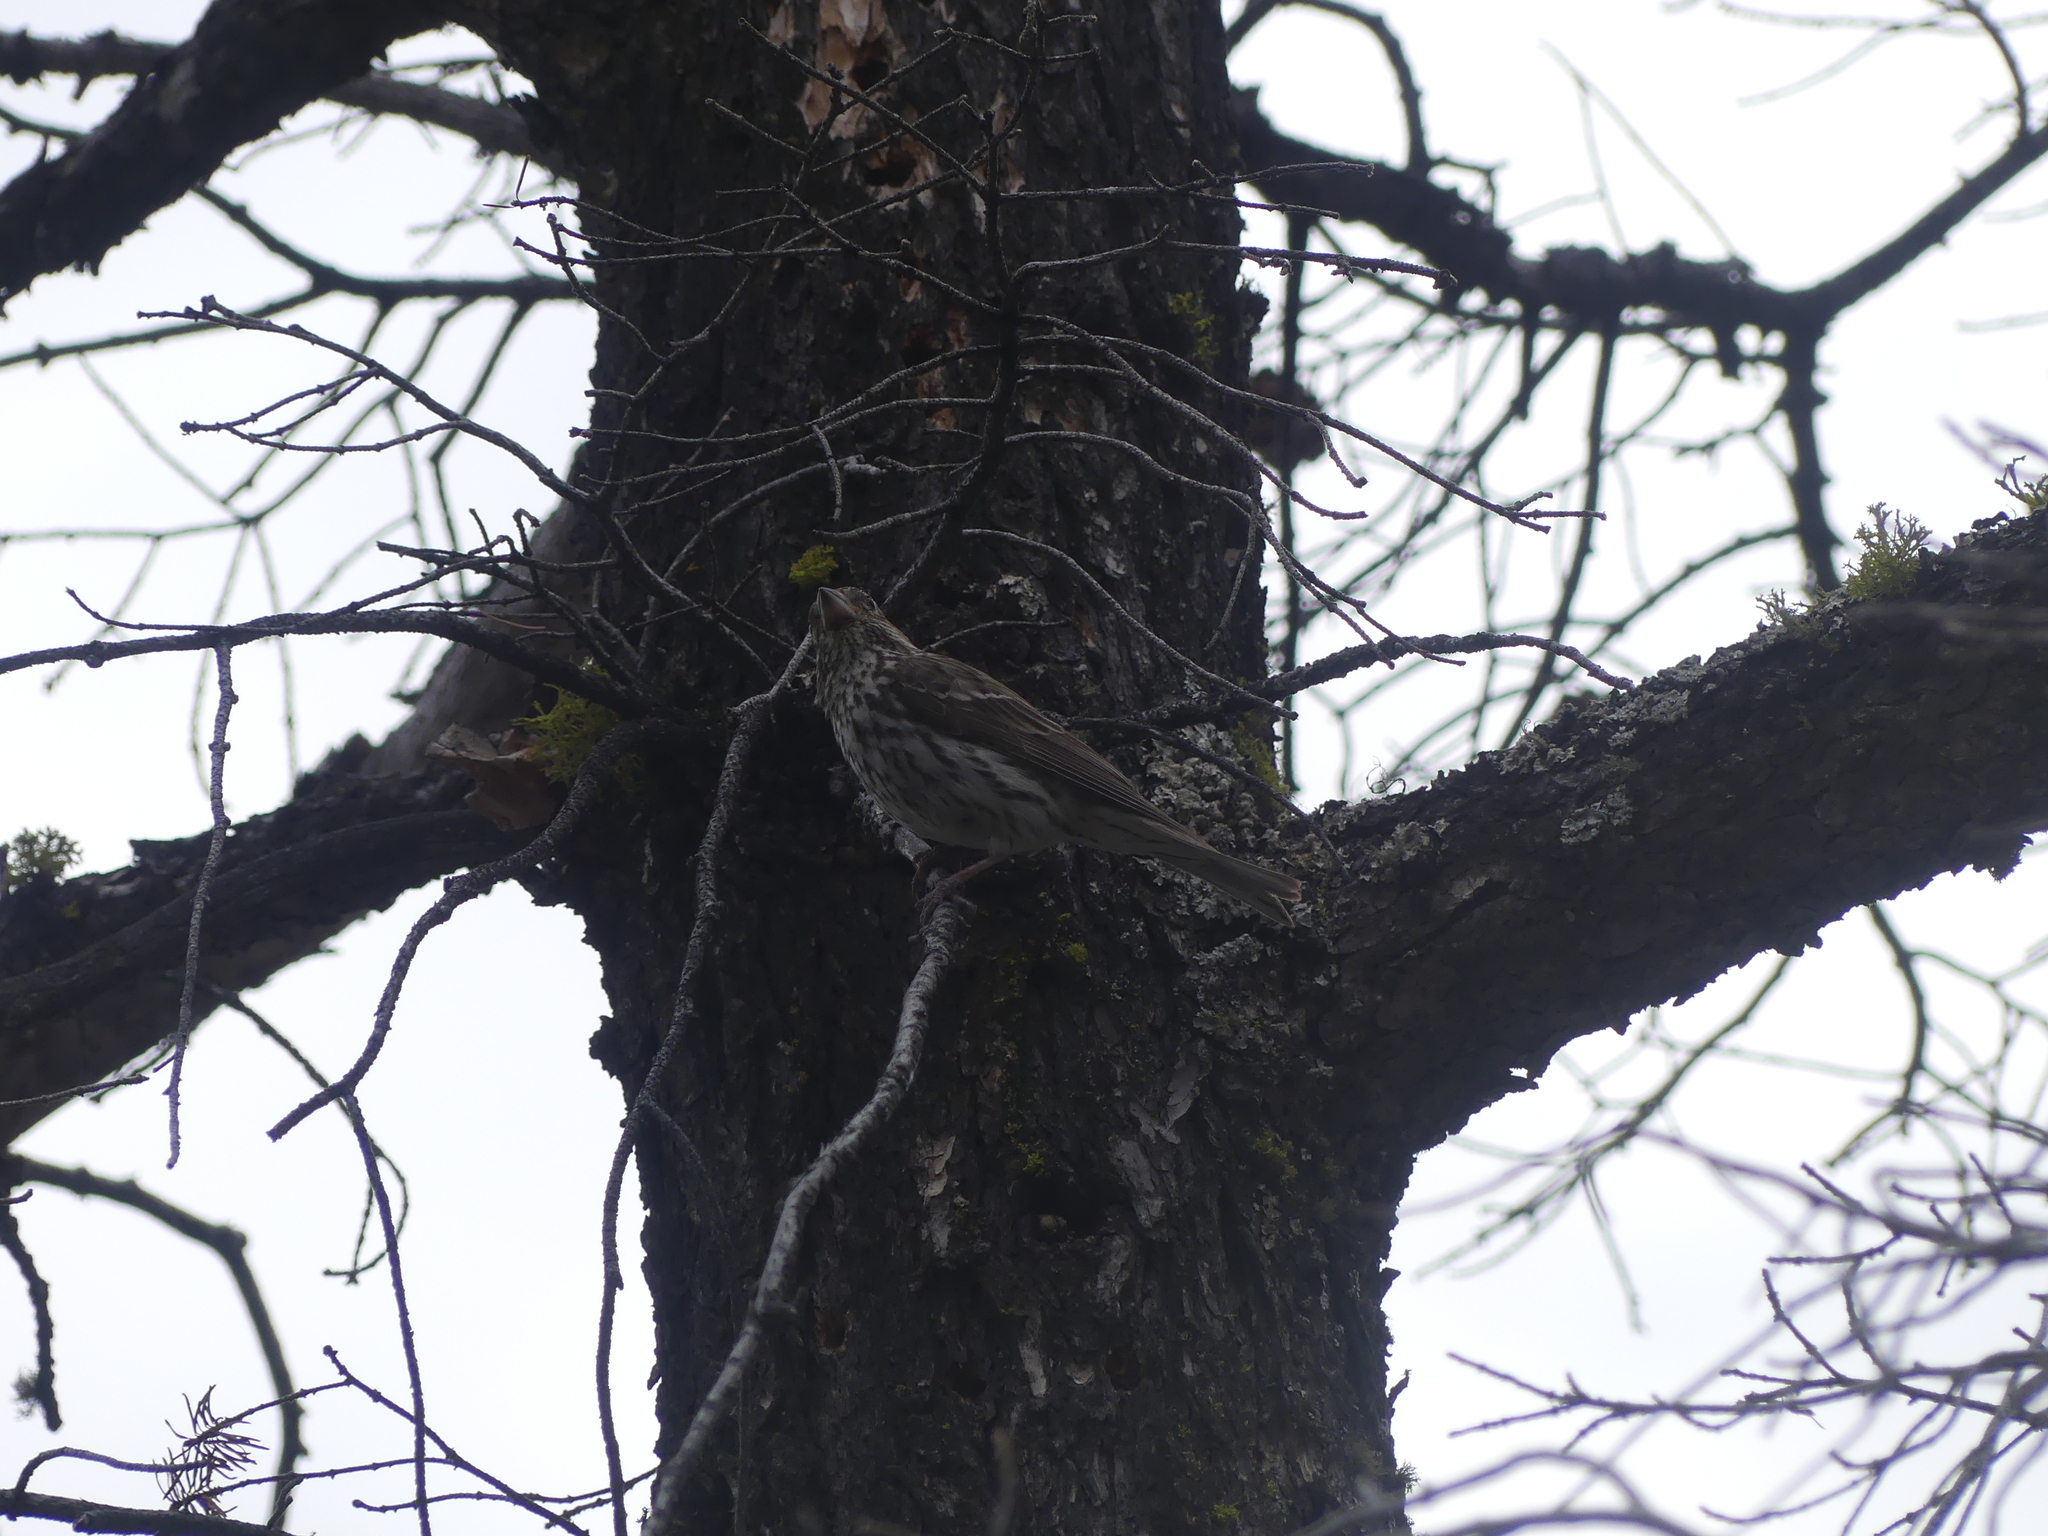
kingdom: Animalia
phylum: Chordata
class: Aves
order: Passeriformes
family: Fringillidae
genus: Haemorhous
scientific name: Haemorhous purpureus
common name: Purple finch
